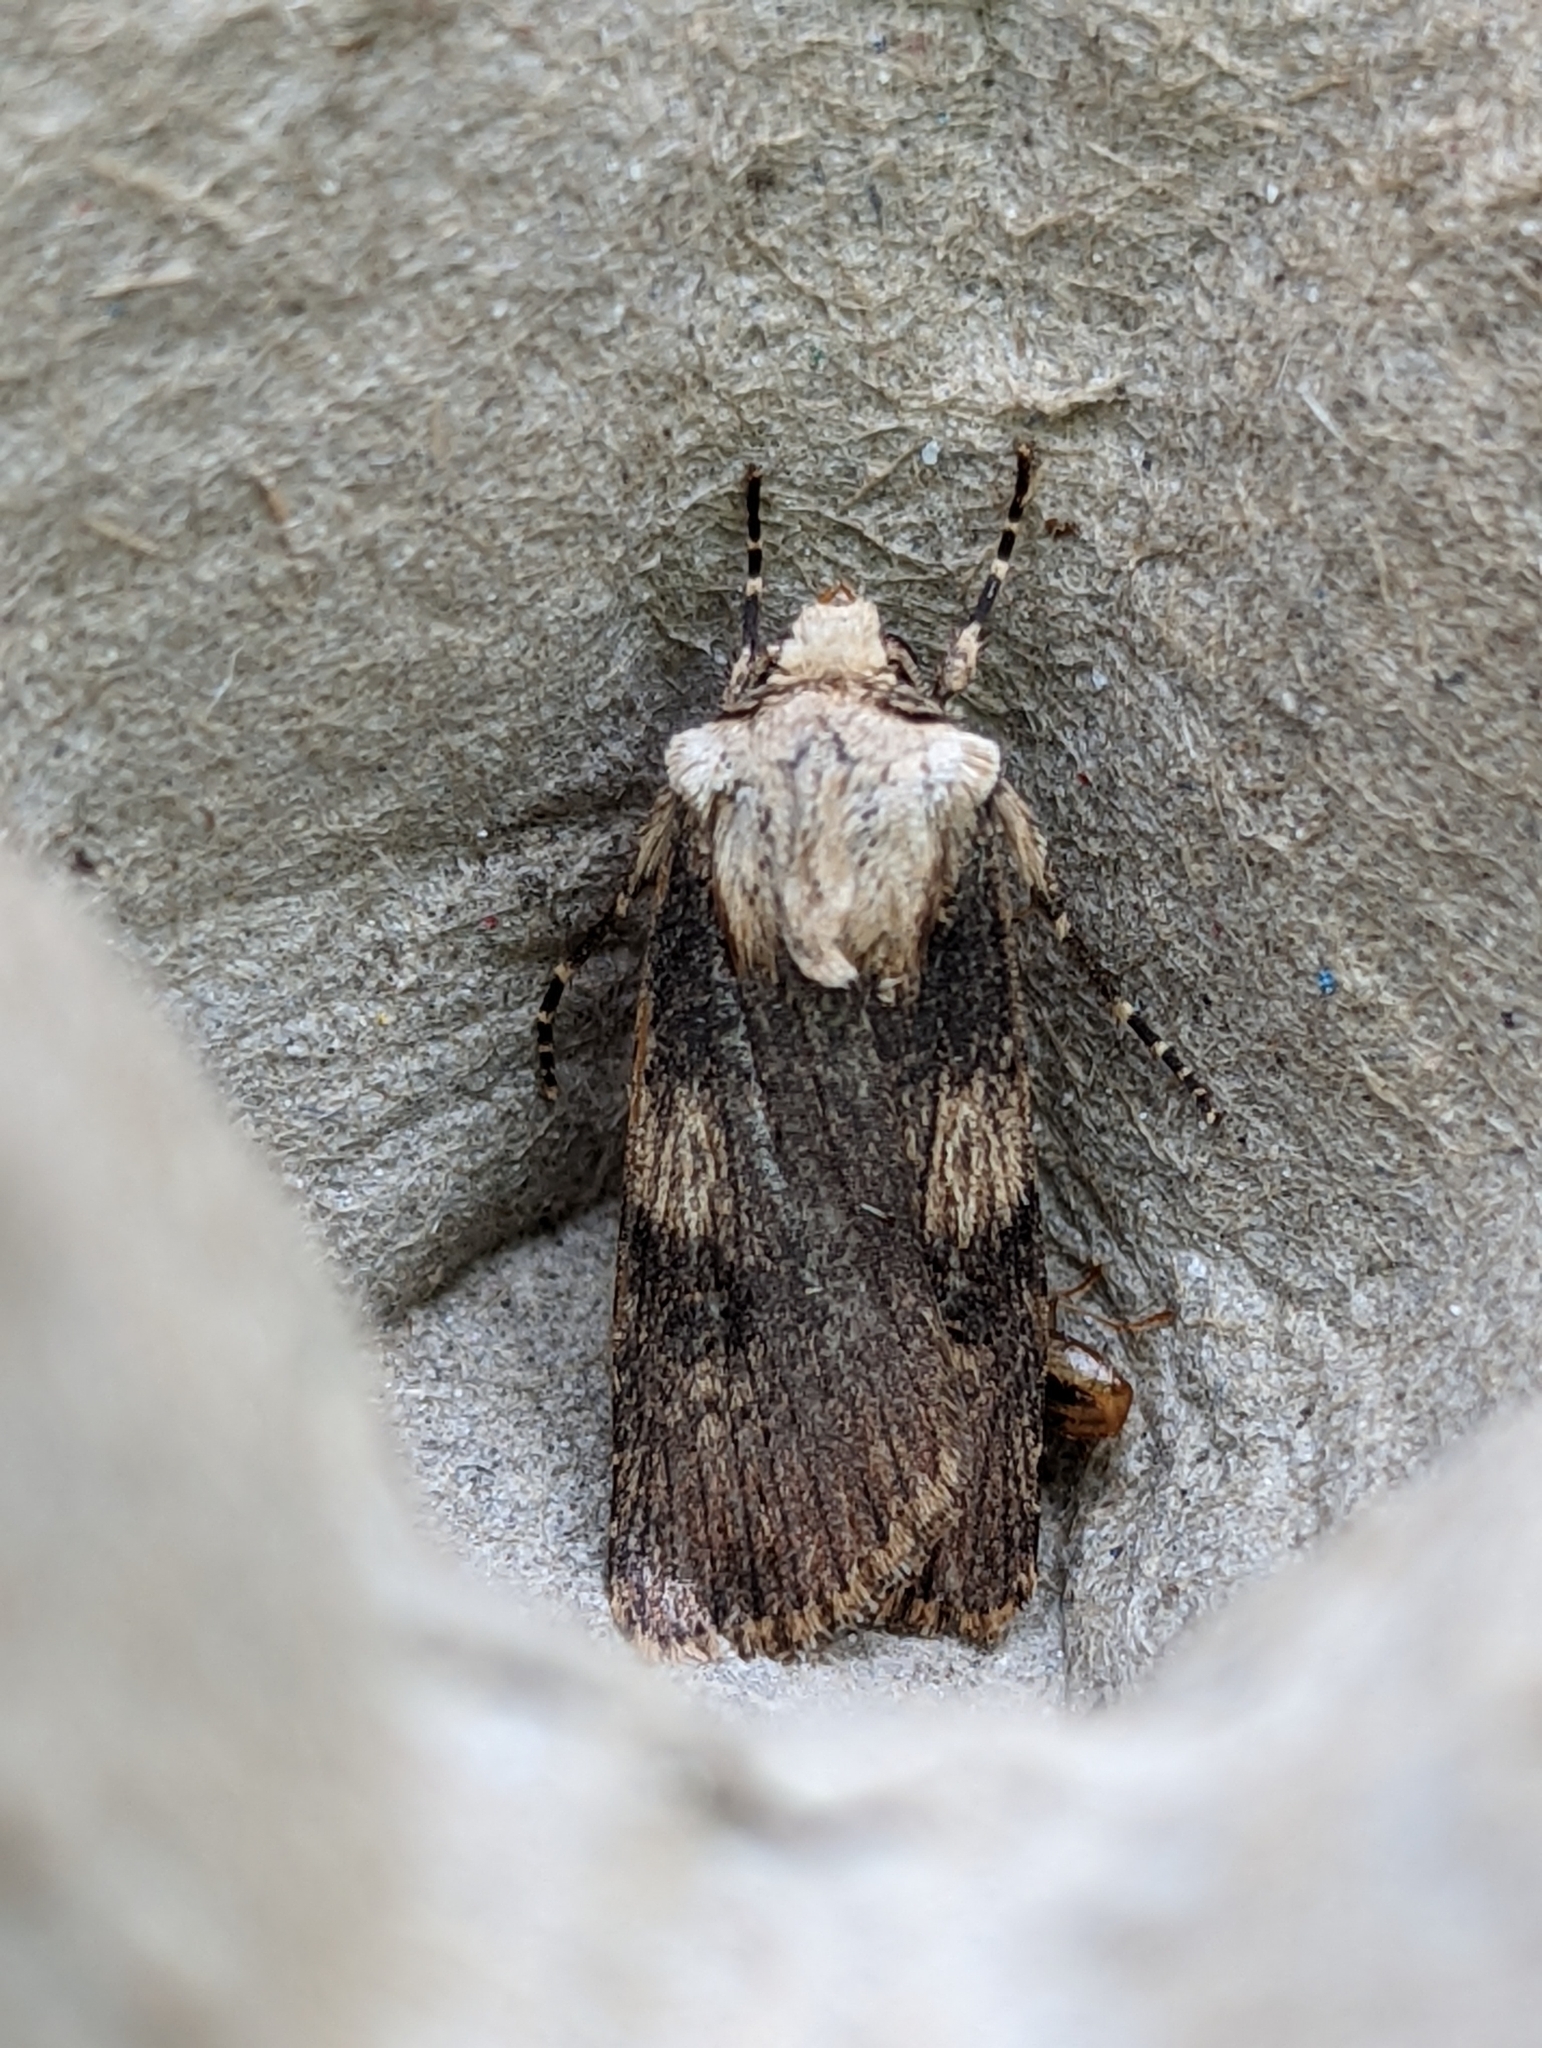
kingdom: Animalia
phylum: Arthropoda
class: Insecta
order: Lepidoptera
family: Noctuidae
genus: Agrotis
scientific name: Agrotis puta
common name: Shuttle-shaped dart
